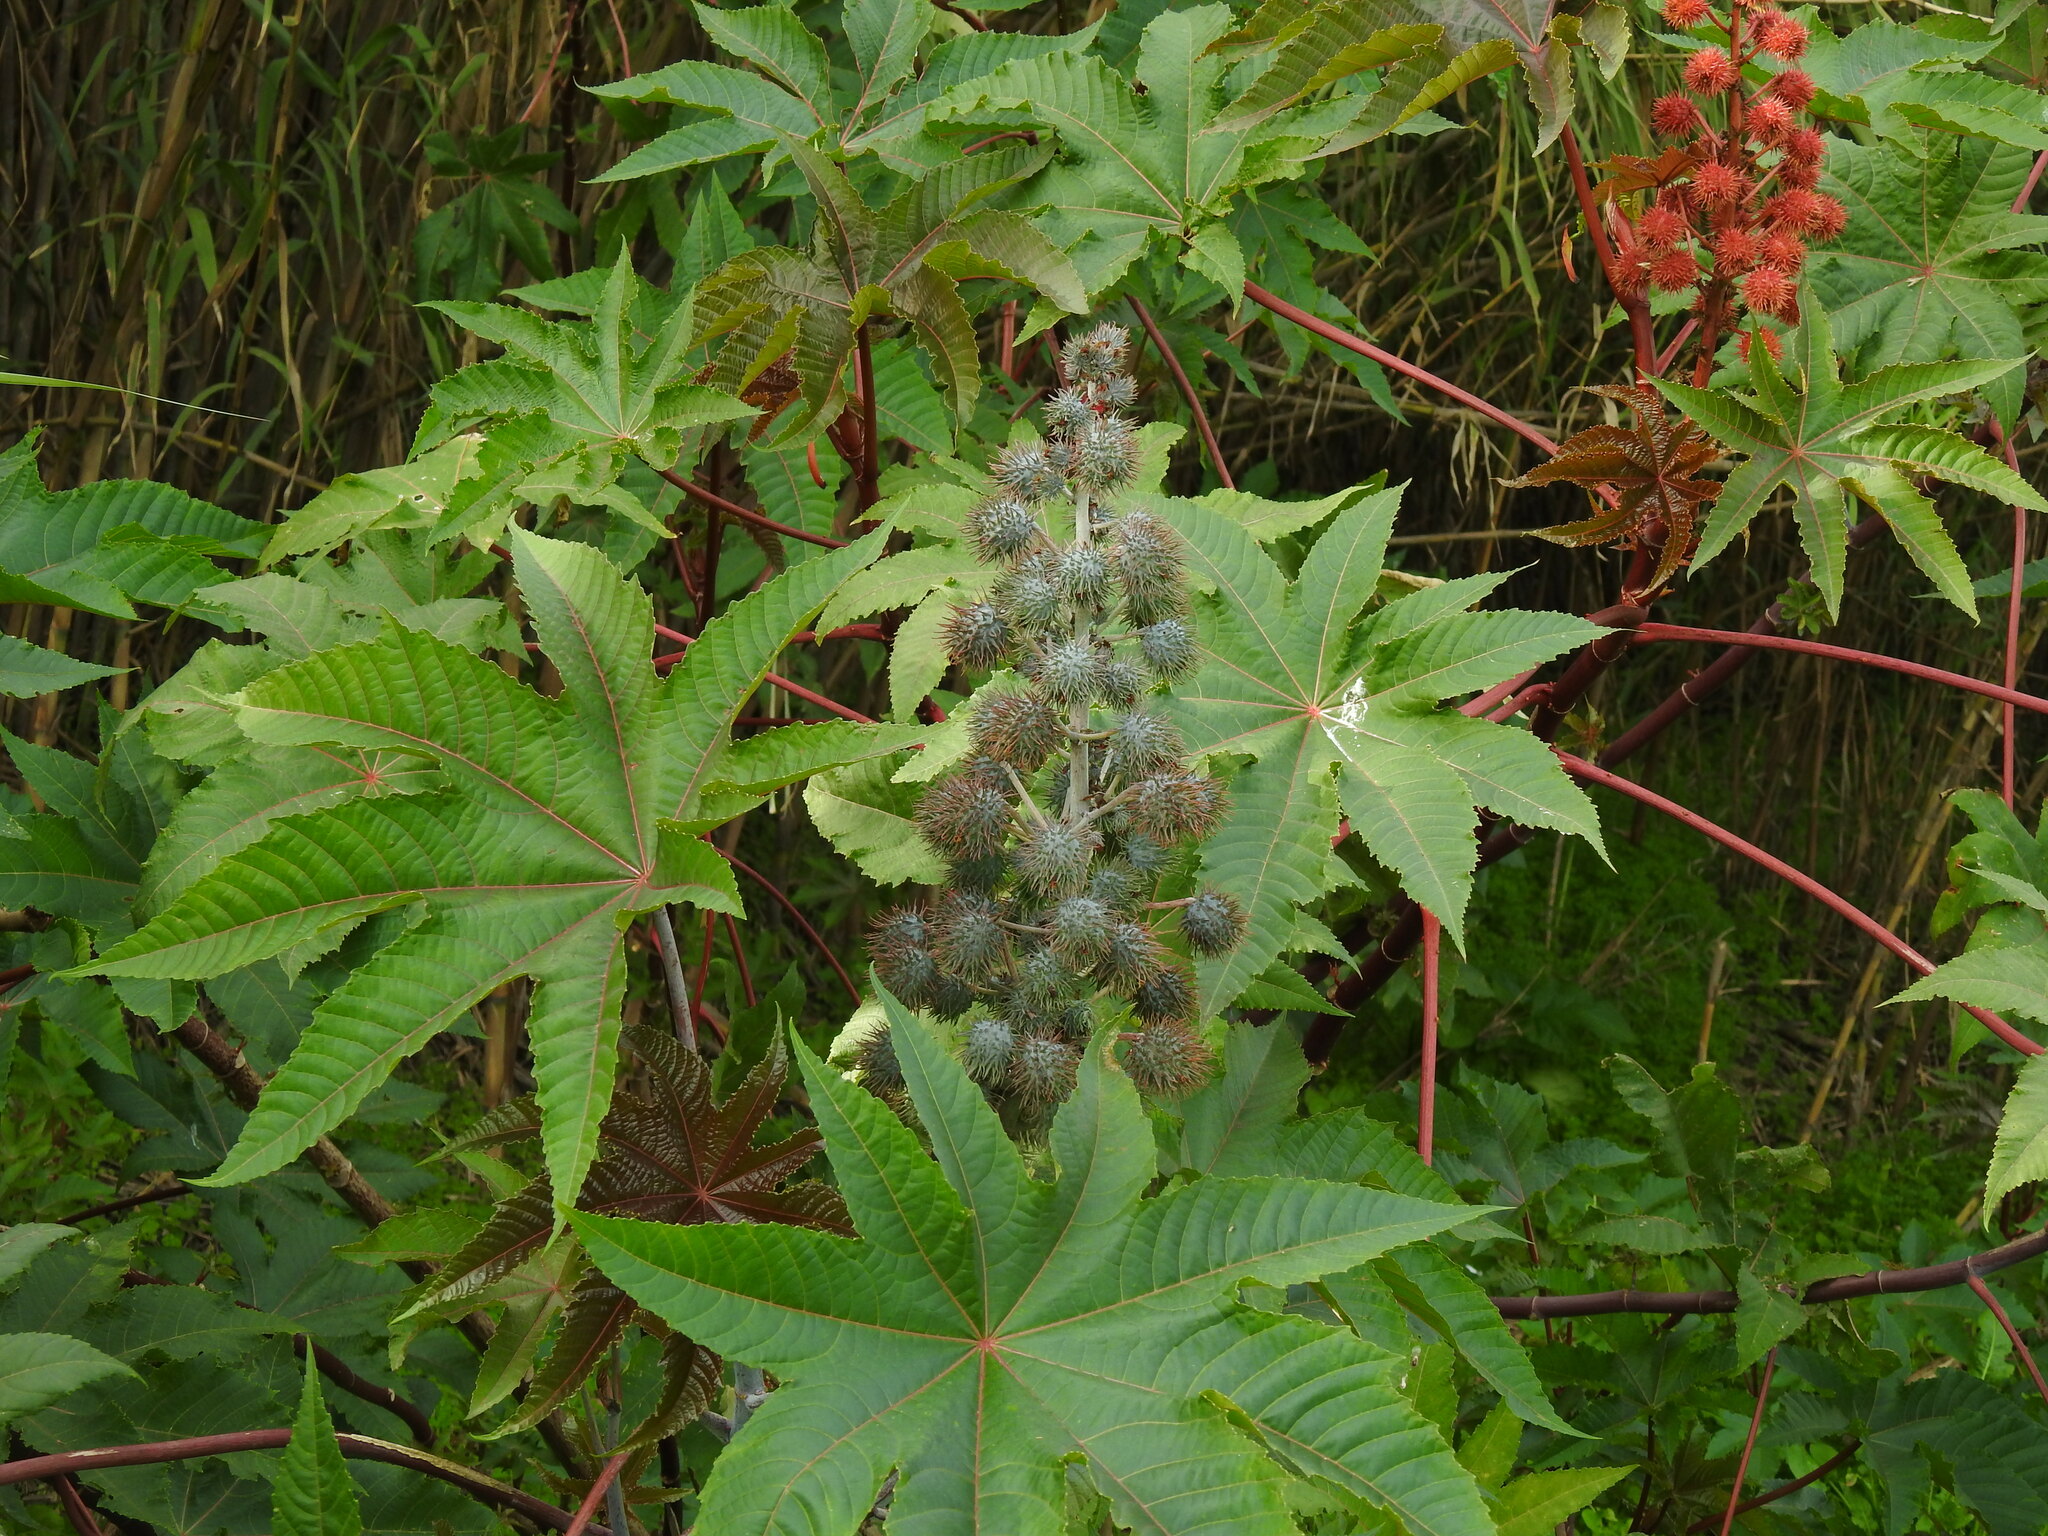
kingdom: Plantae
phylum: Tracheophyta
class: Magnoliopsida
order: Malpighiales
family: Euphorbiaceae
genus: Ricinus
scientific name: Ricinus communis
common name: Castor-oil-plant
